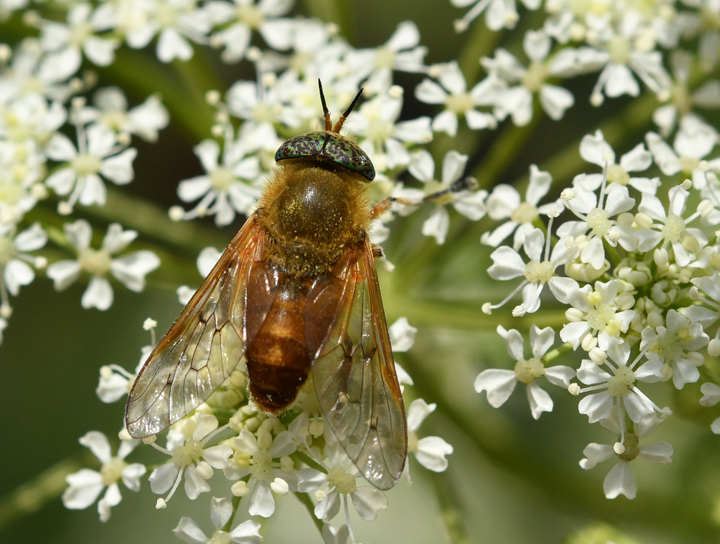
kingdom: Animalia
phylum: Arthropoda
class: Insecta
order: Diptera
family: Tabanidae
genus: Silvius
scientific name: Silvius gigantulus
